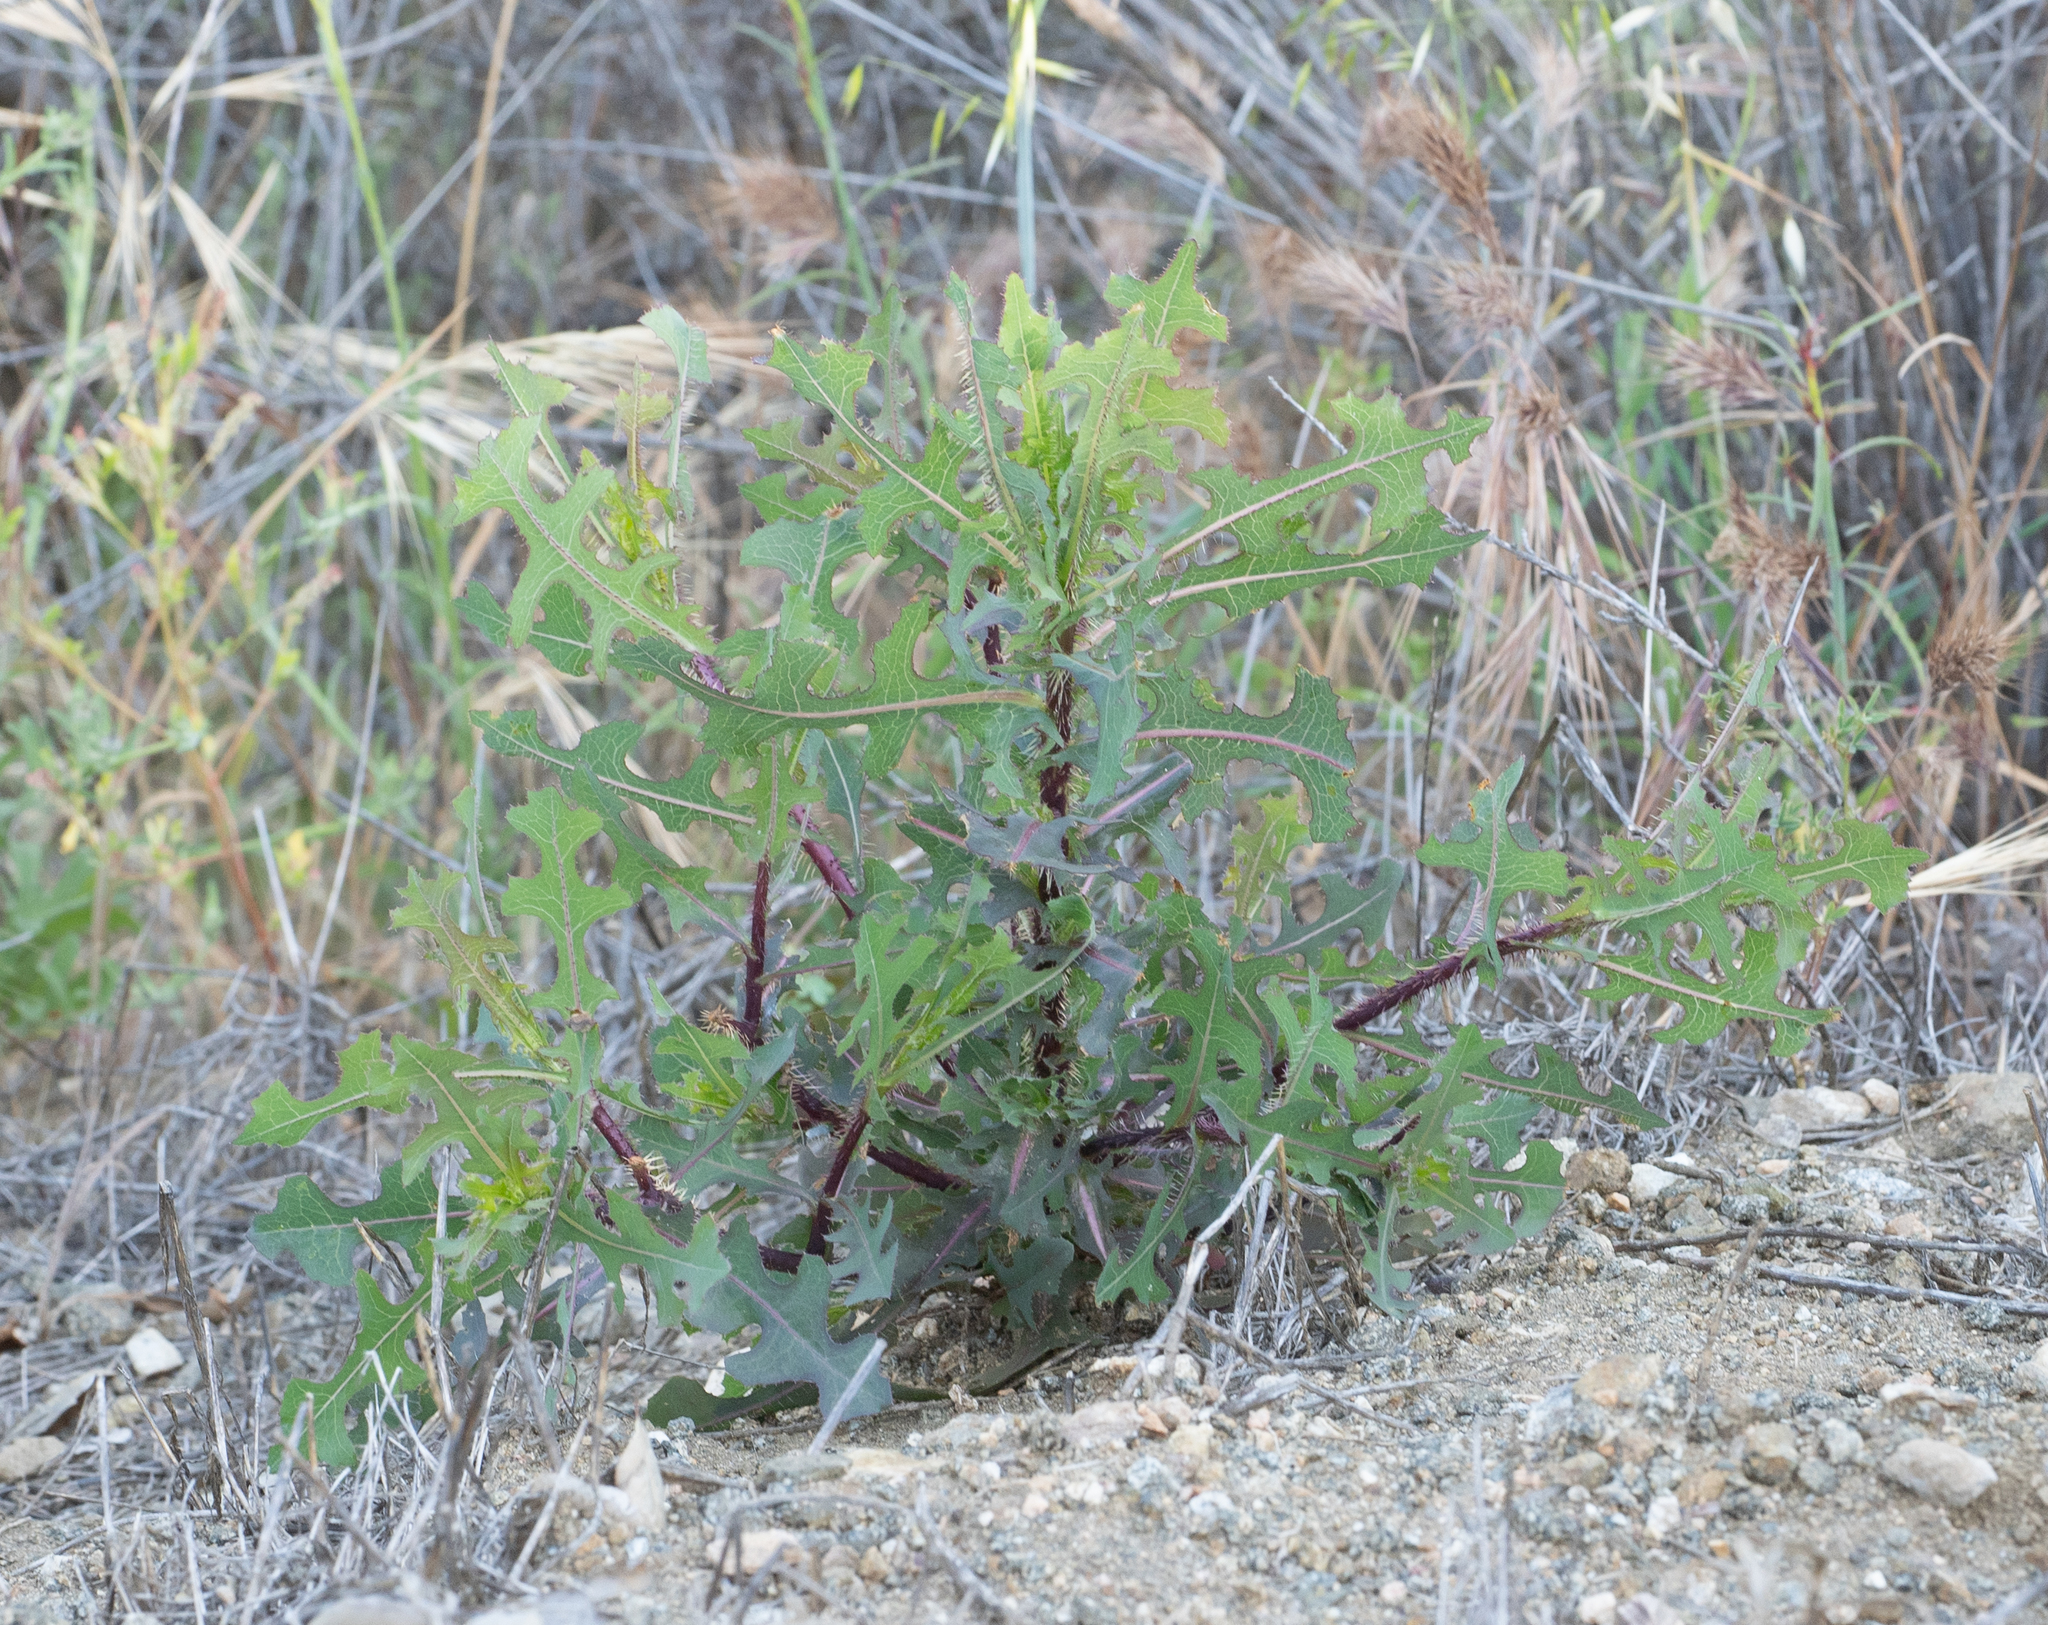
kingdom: Plantae
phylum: Tracheophyta
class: Magnoliopsida
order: Asterales
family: Asteraceae
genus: Lactuca
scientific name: Lactuca serriola
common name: Prickly lettuce
